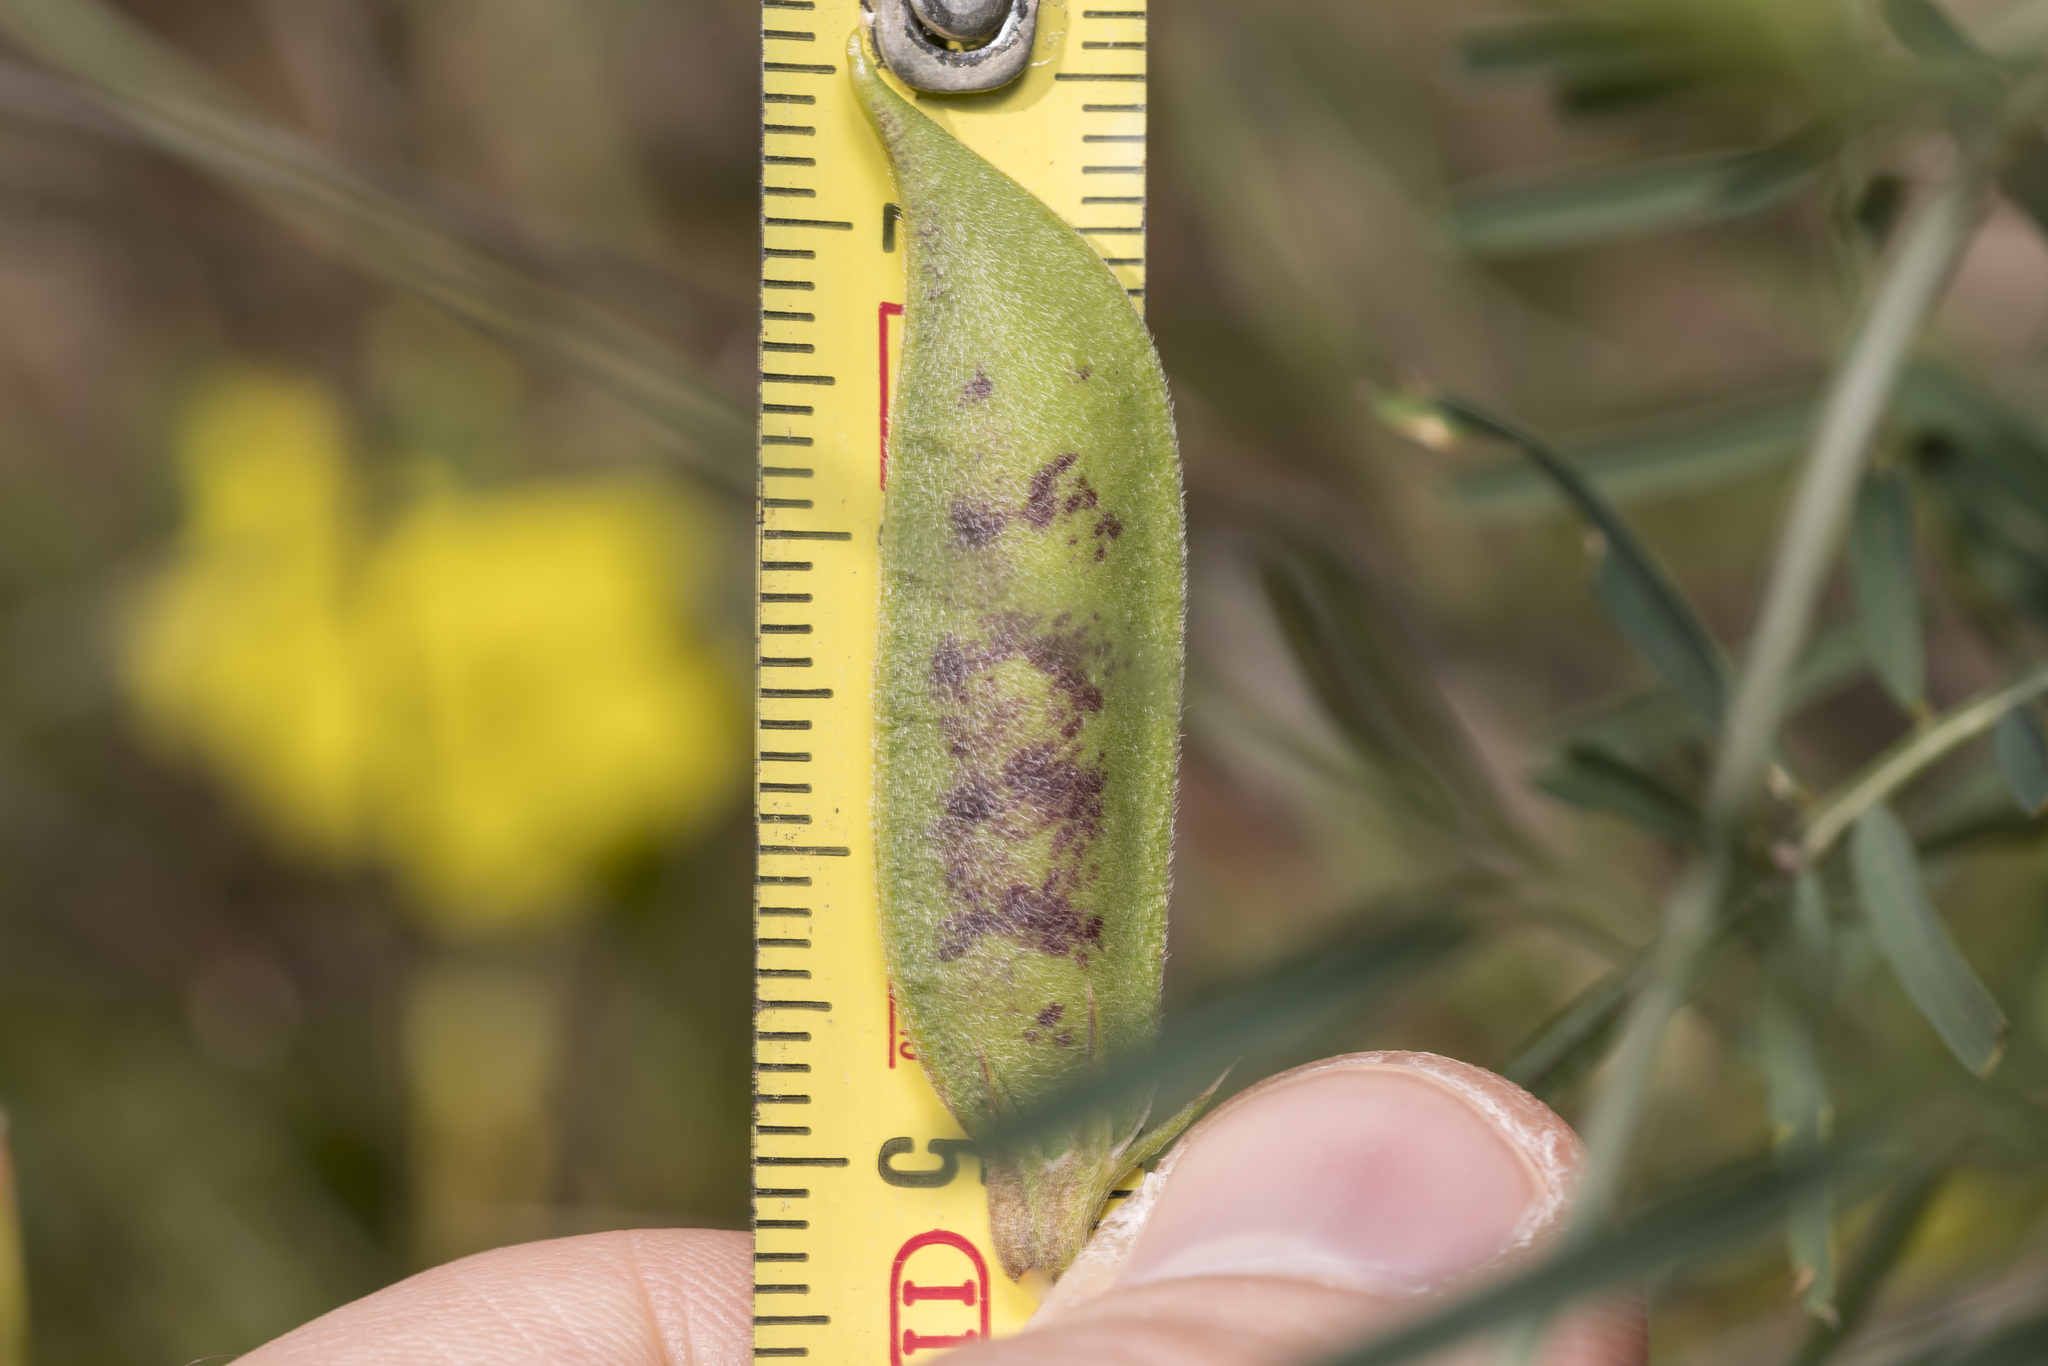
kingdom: Plantae
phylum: Tracheophyta
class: Magnoliopsida
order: Fabales
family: Fabaceae
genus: Vicia
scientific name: Vicia peregrina
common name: Broad-pod vetch
